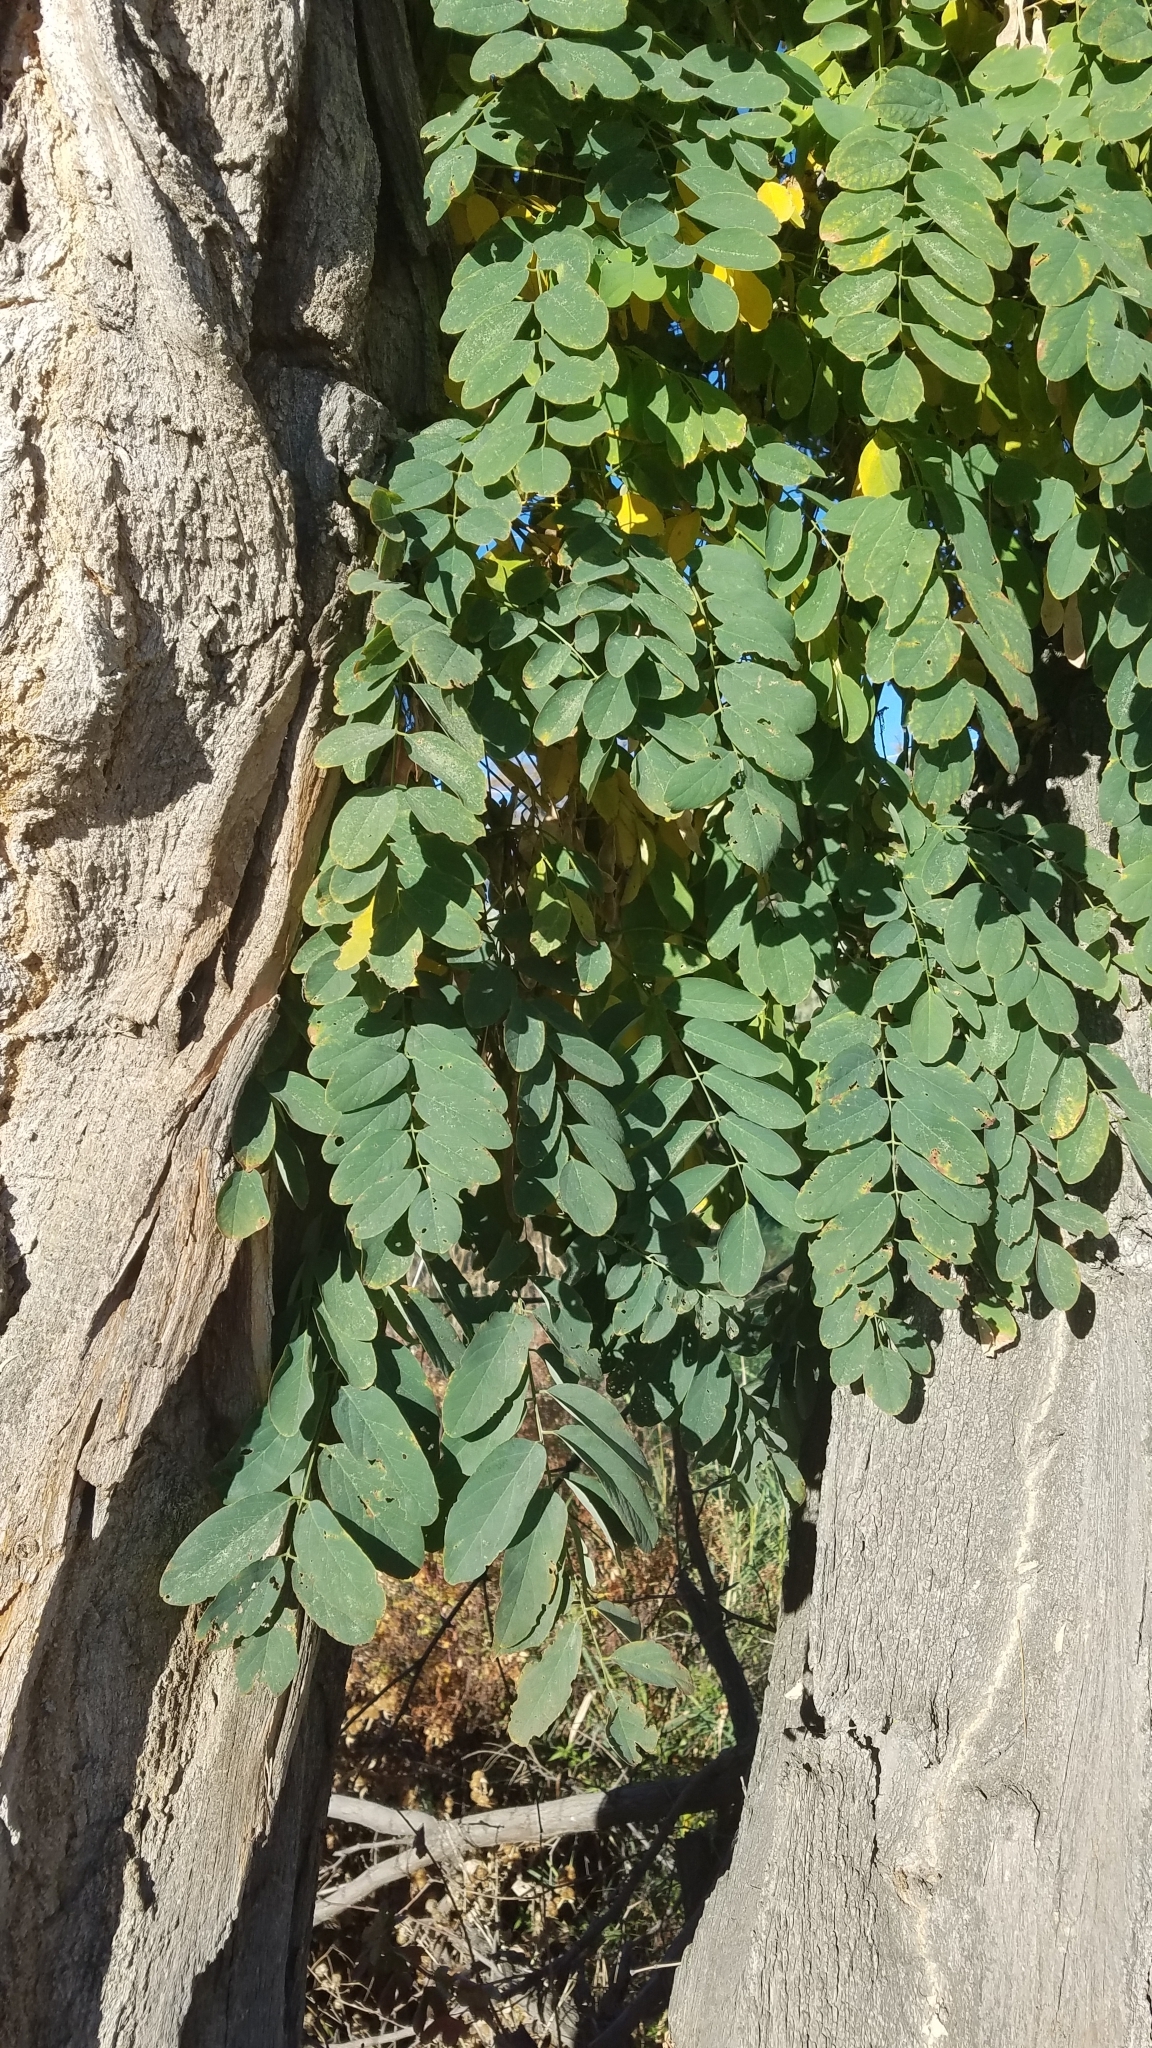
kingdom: Plantae
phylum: Tracheophyta
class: Magnoliopsida
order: Fabales
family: Fabaceae
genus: Robinia
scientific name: Robinia pseudoacacia
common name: Black locust
